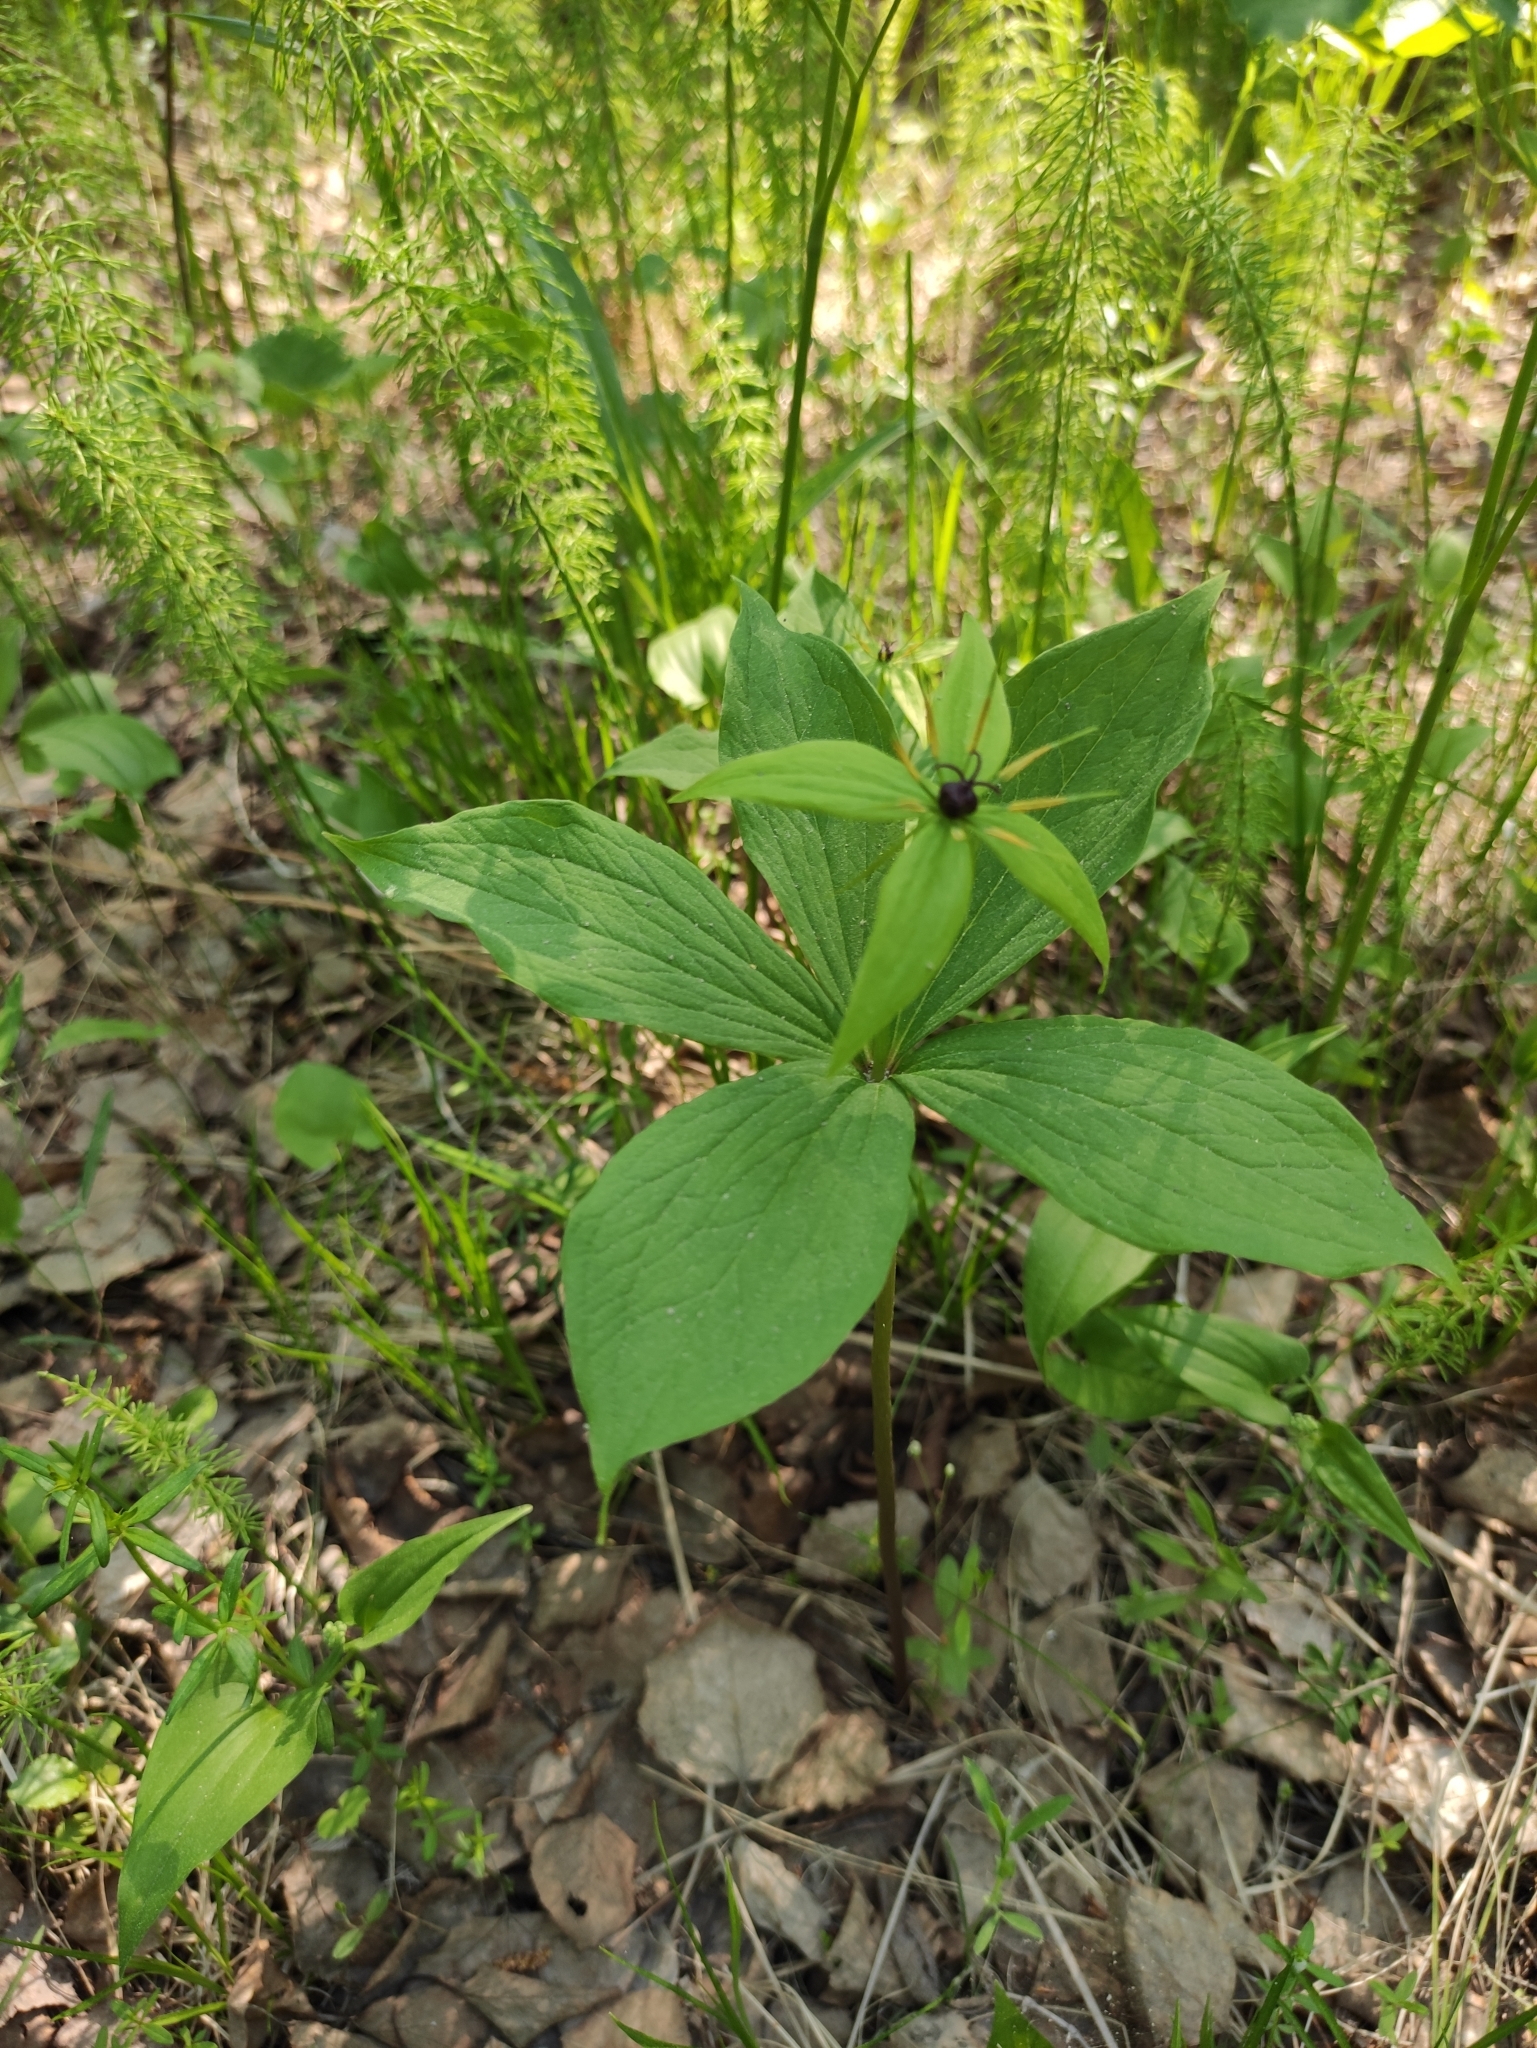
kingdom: Plantae
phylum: Tracheophyta
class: Liliopsida
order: Liliales
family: Melanthiaceae
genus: Paris
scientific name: Paris verticillata
